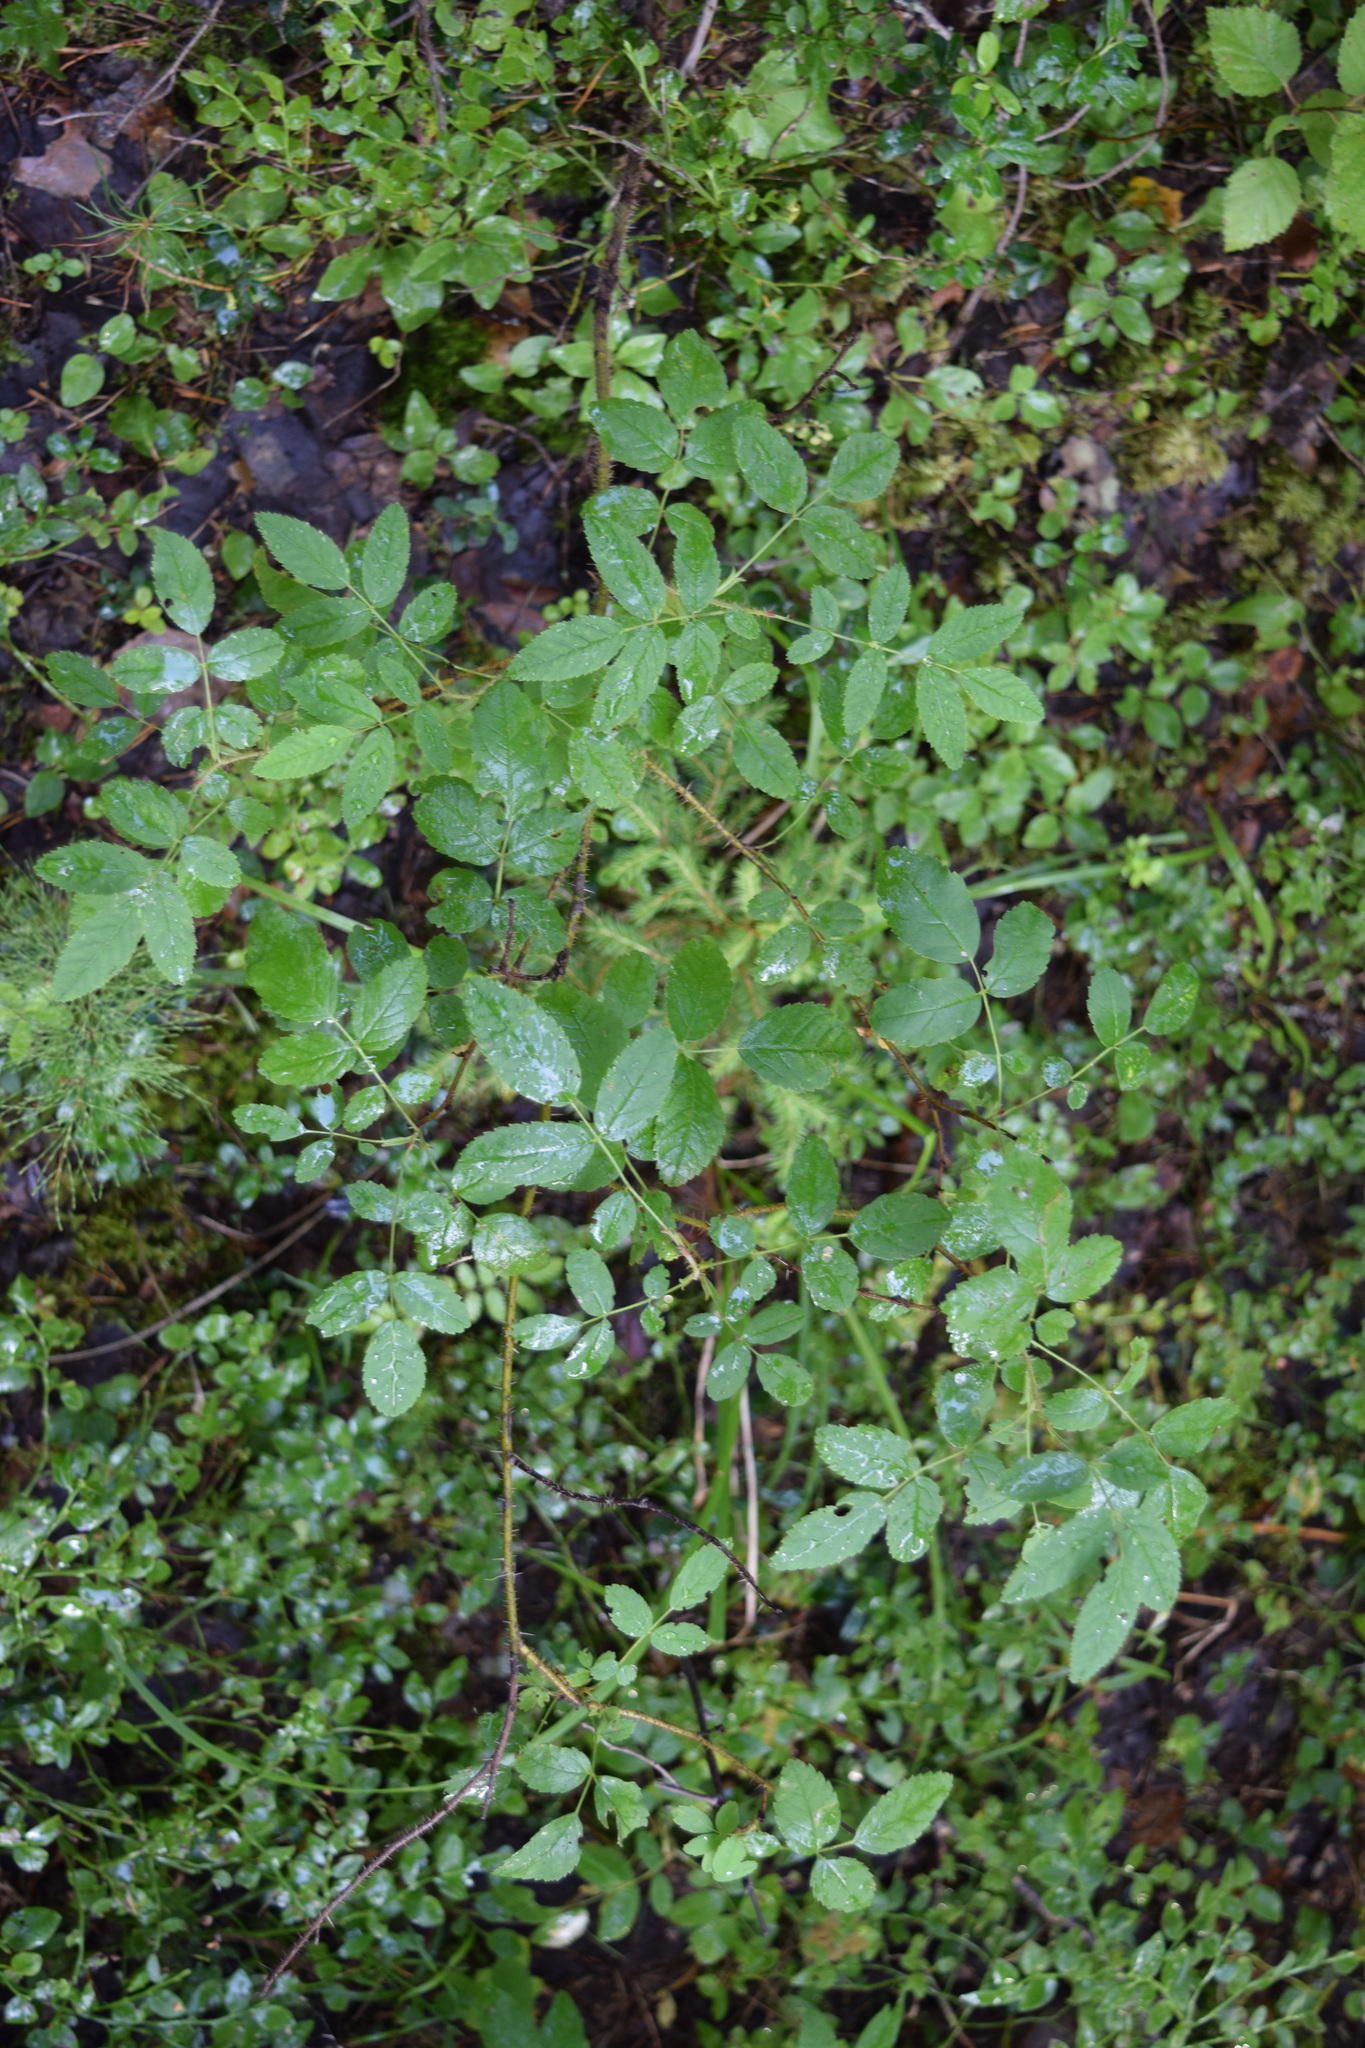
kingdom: Plantae
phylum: Tracheophyta
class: Magnoliopsida
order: Rosales
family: Rosaceae
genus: Rosa
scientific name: Rosa acicularis
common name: Prickly rose
